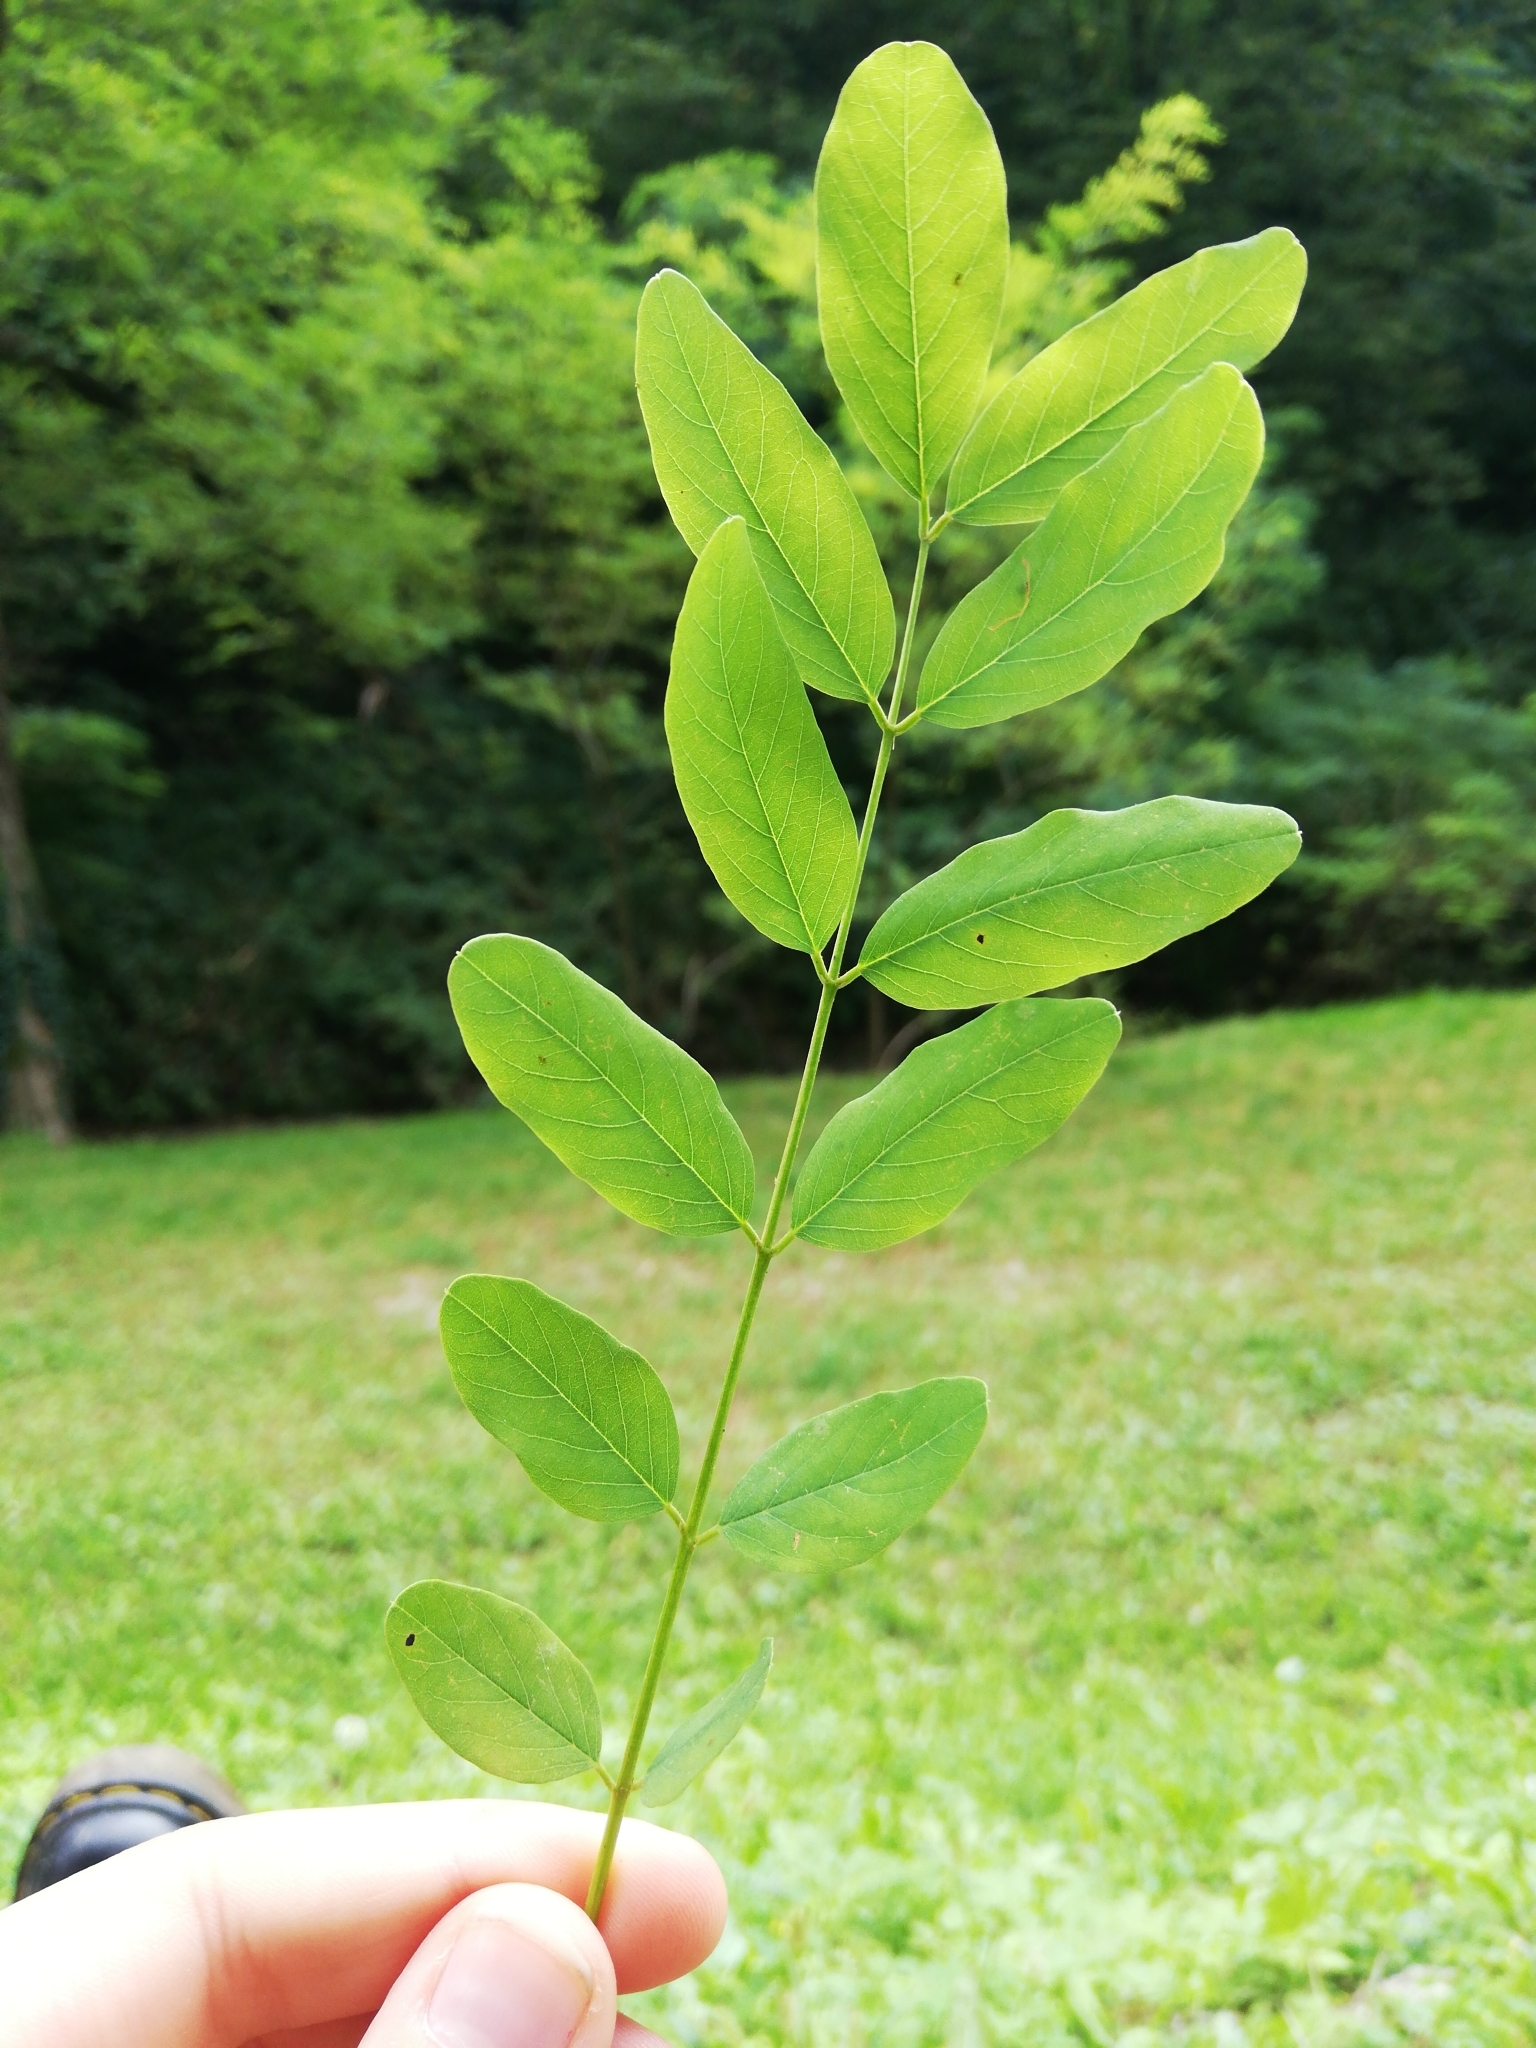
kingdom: Plantae
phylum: Tracheophyta
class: Magnoliopsida
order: Fabales
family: Fabaceae
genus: Robinia
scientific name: Robinia pseudoacacia
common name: Black locust
